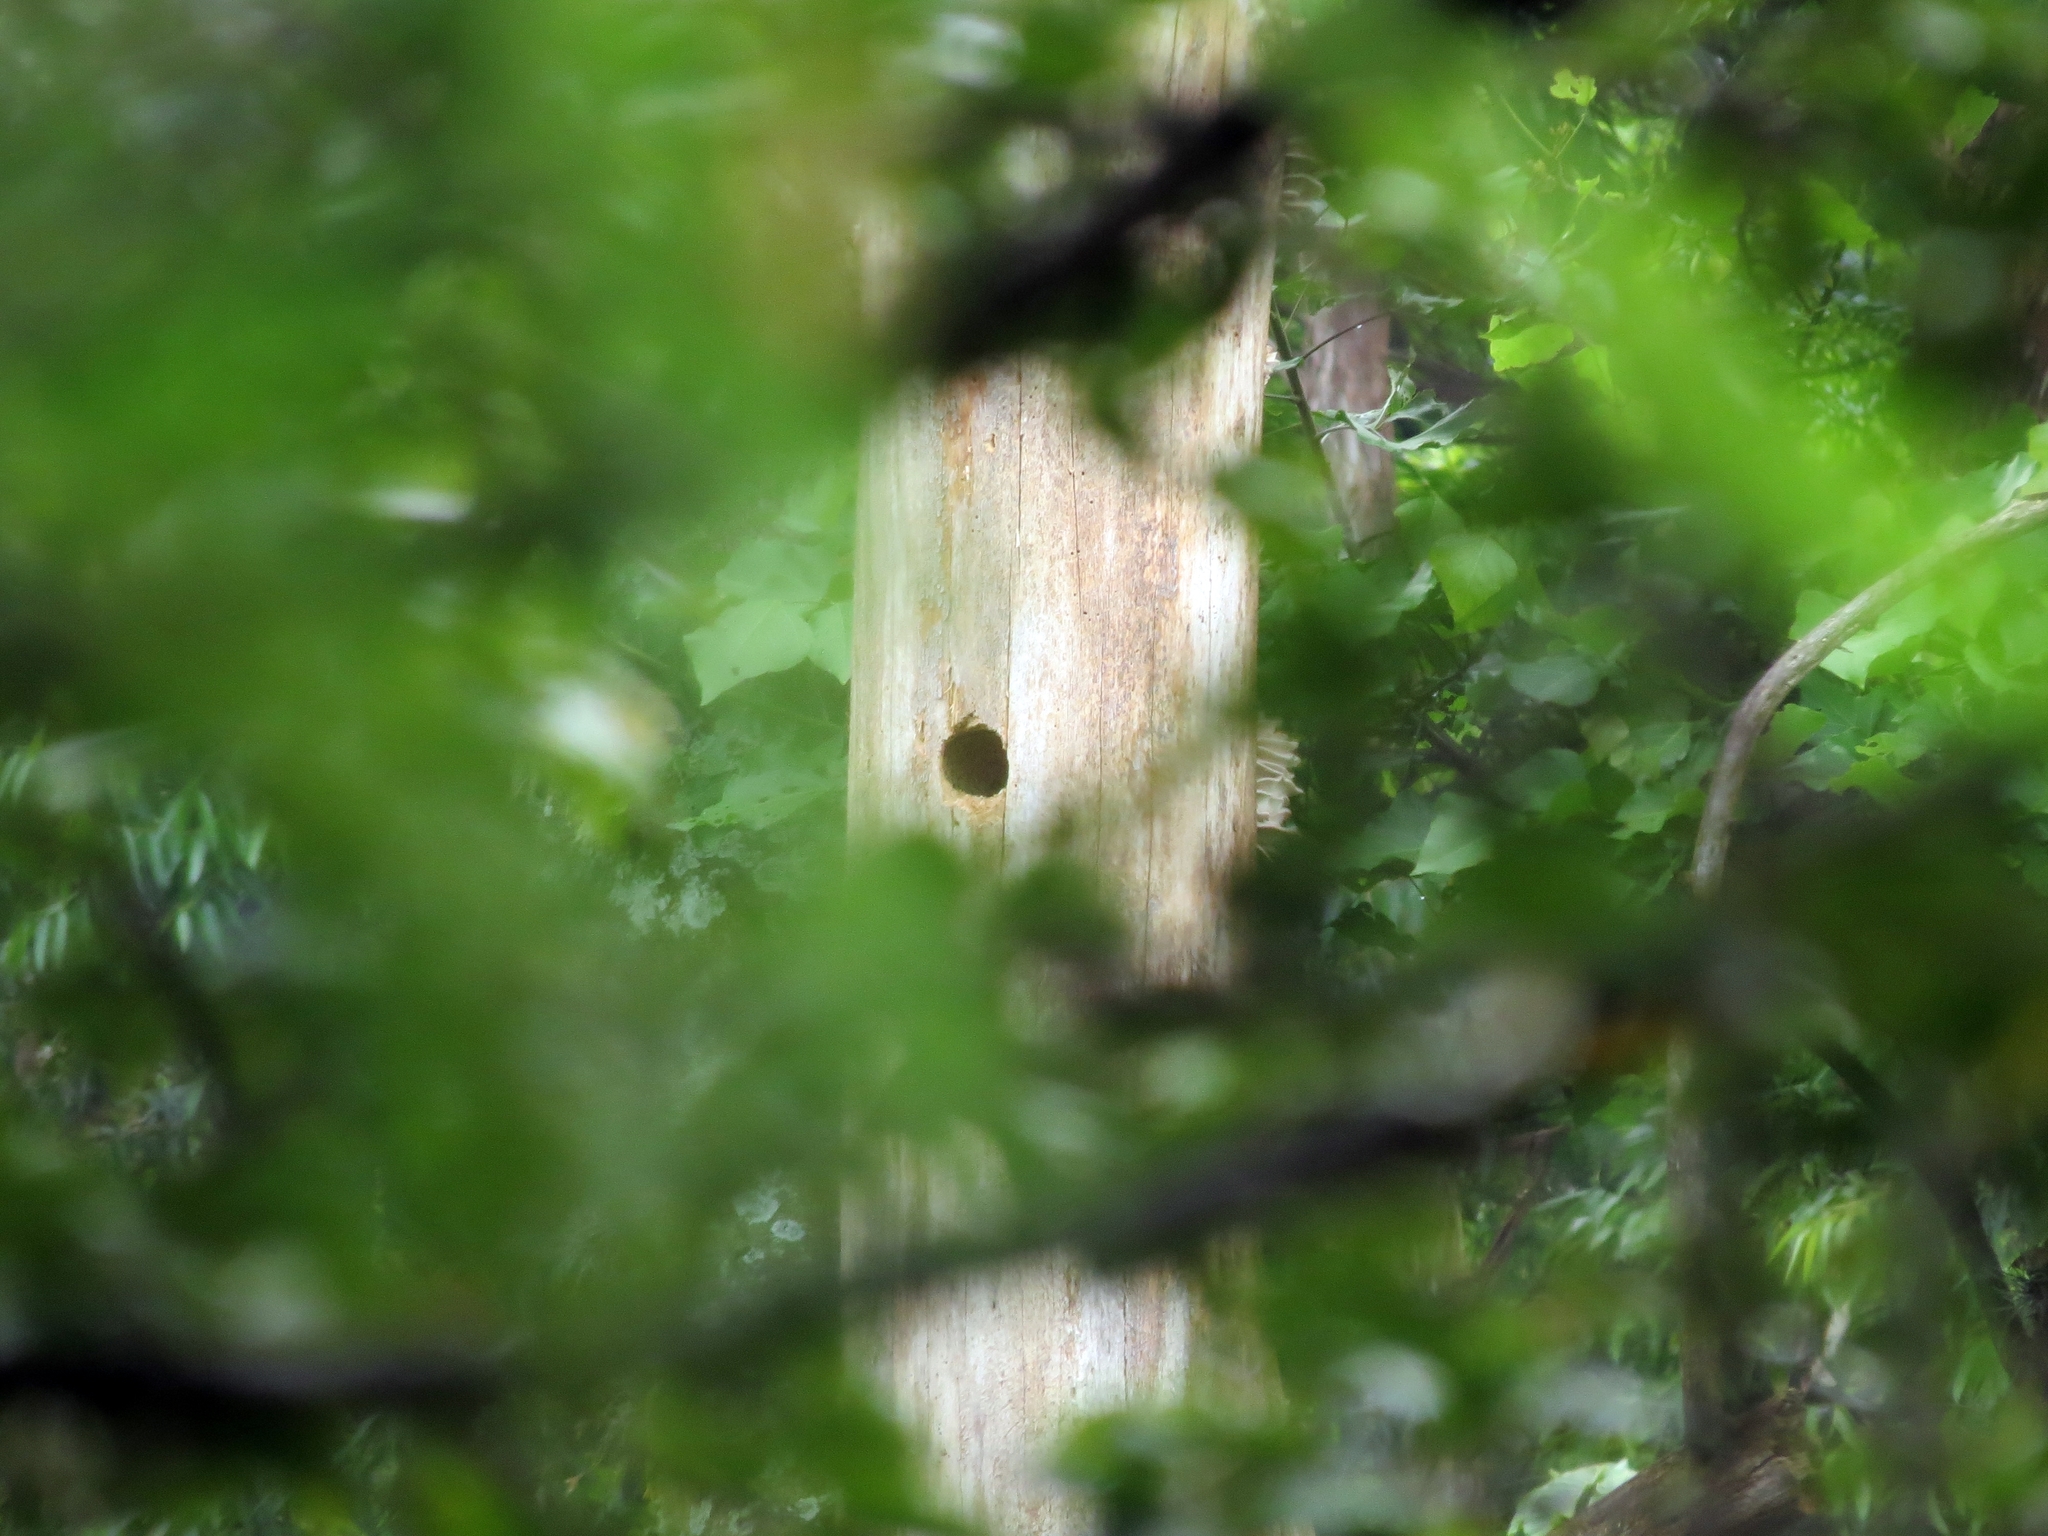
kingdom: Animalia
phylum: Chordata
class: Aves
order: Piciformes
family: Picidae
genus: Dryocopus
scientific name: Dryocopus lineatus
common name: Lineated woodpecker
